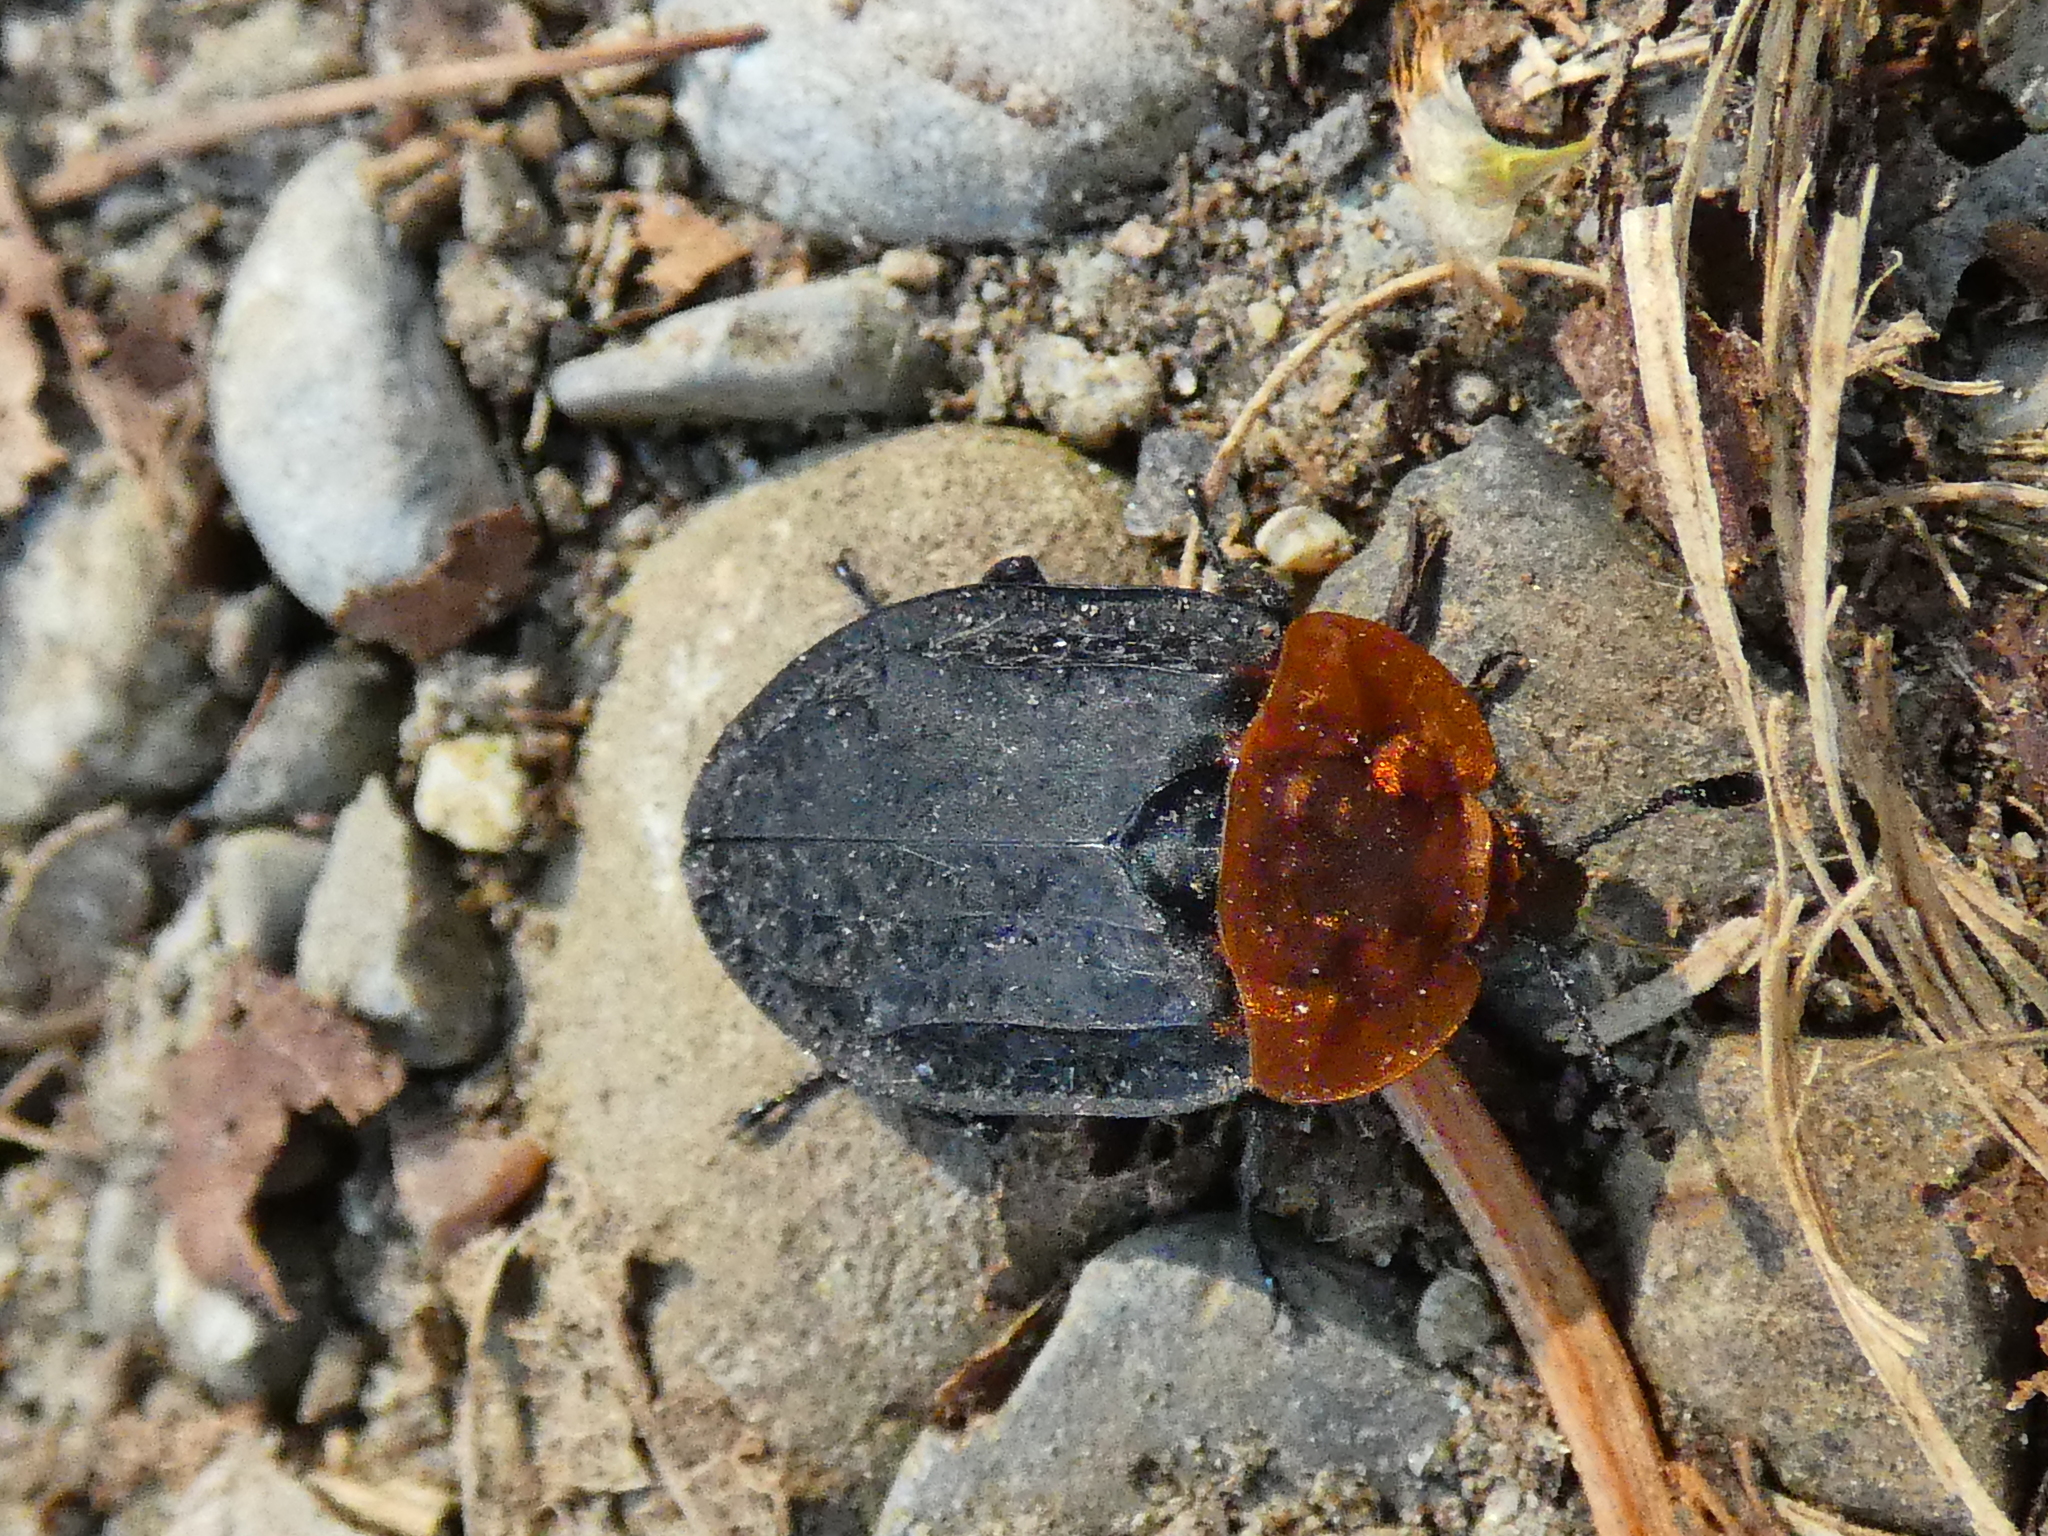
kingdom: Animalia
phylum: Arthropoda
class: Insecta
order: Coleoptera
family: Staphylinidae
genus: Oiceoptoma
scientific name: Oiceoptoma thoracicum
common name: Red-breasted carrion beetle
